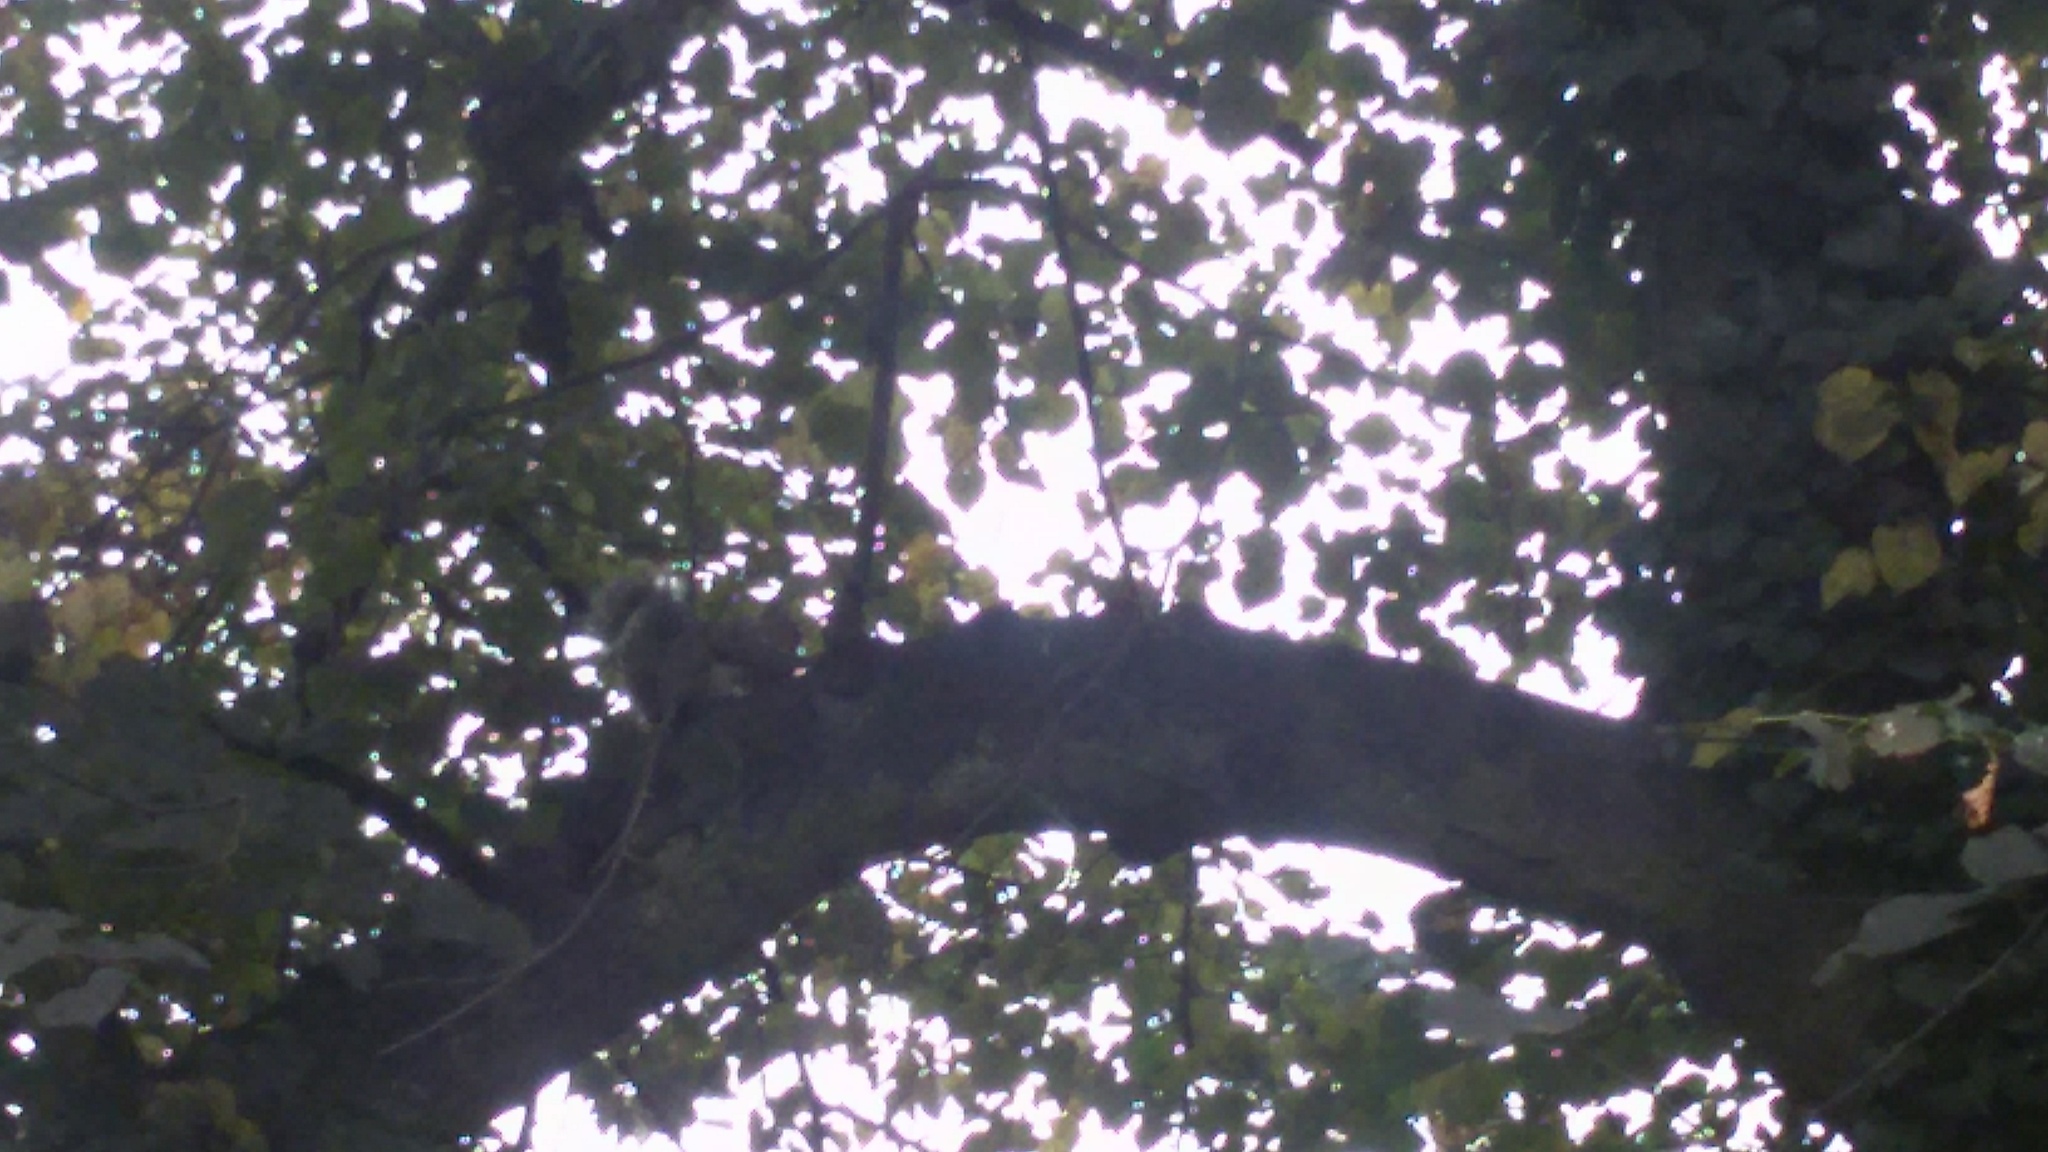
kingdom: Animalia
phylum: Chordata
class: Mammalia
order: Rodentia
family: Sciuridae
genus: Sciurus
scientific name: Sciurus carolinensis
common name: Eastern gray squirrel
